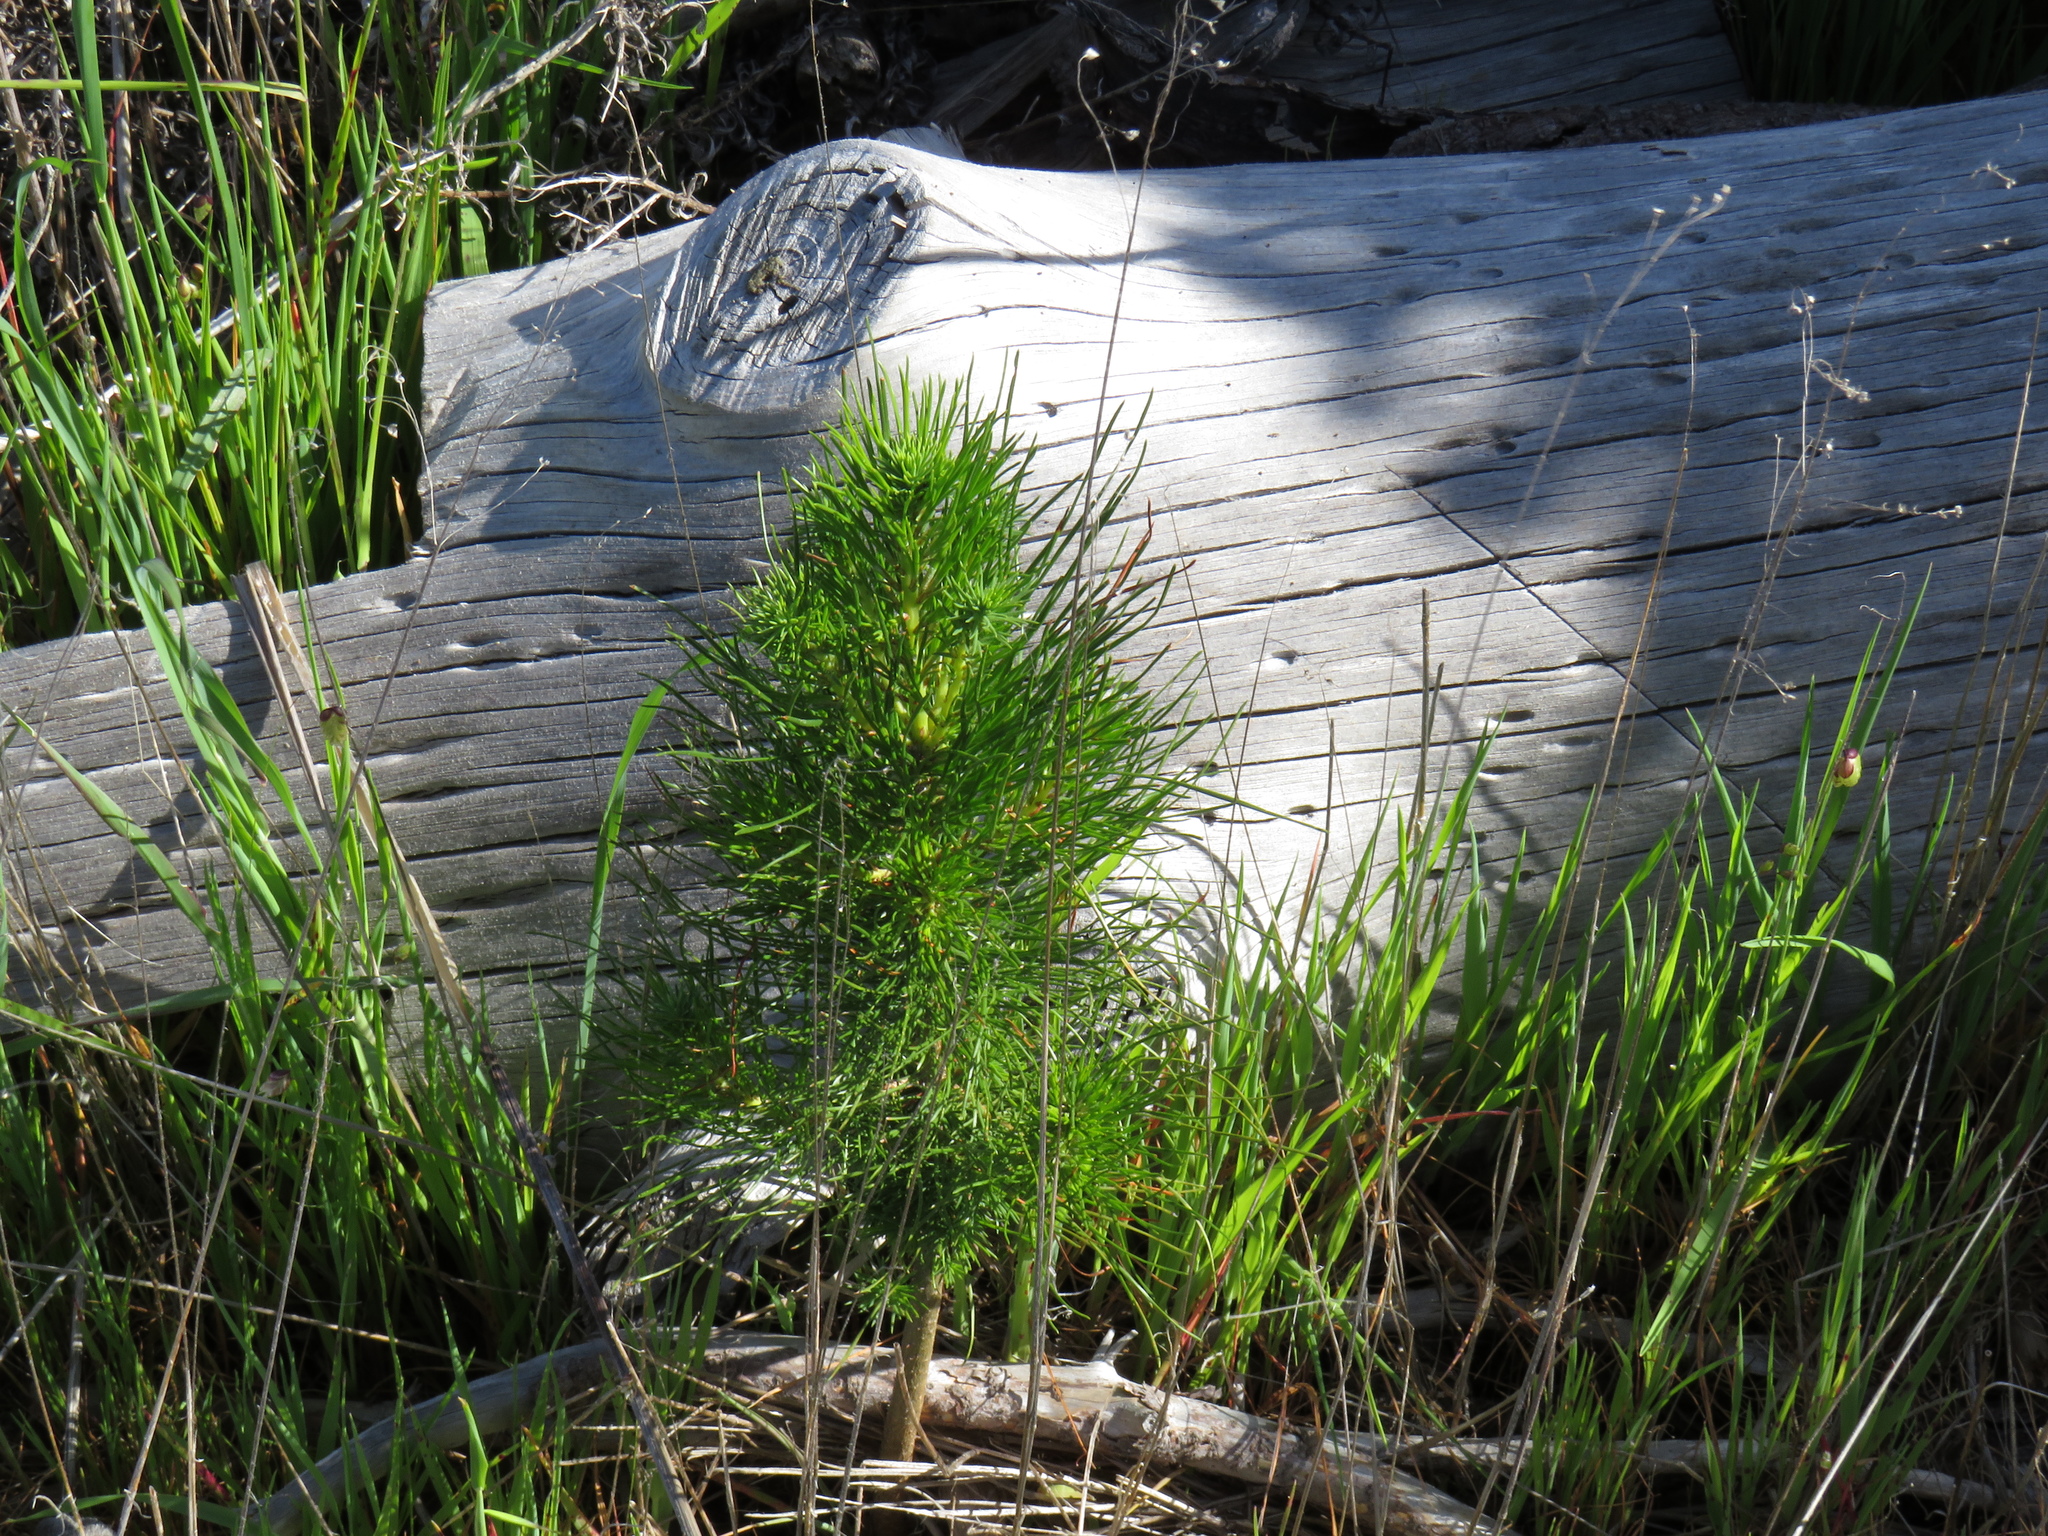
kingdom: Plantae
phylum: Tracheophyta
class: Pinopsida
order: Pinales
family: Pinaceae
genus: Pinus
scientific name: Pinus radiata
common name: Monterey pine
